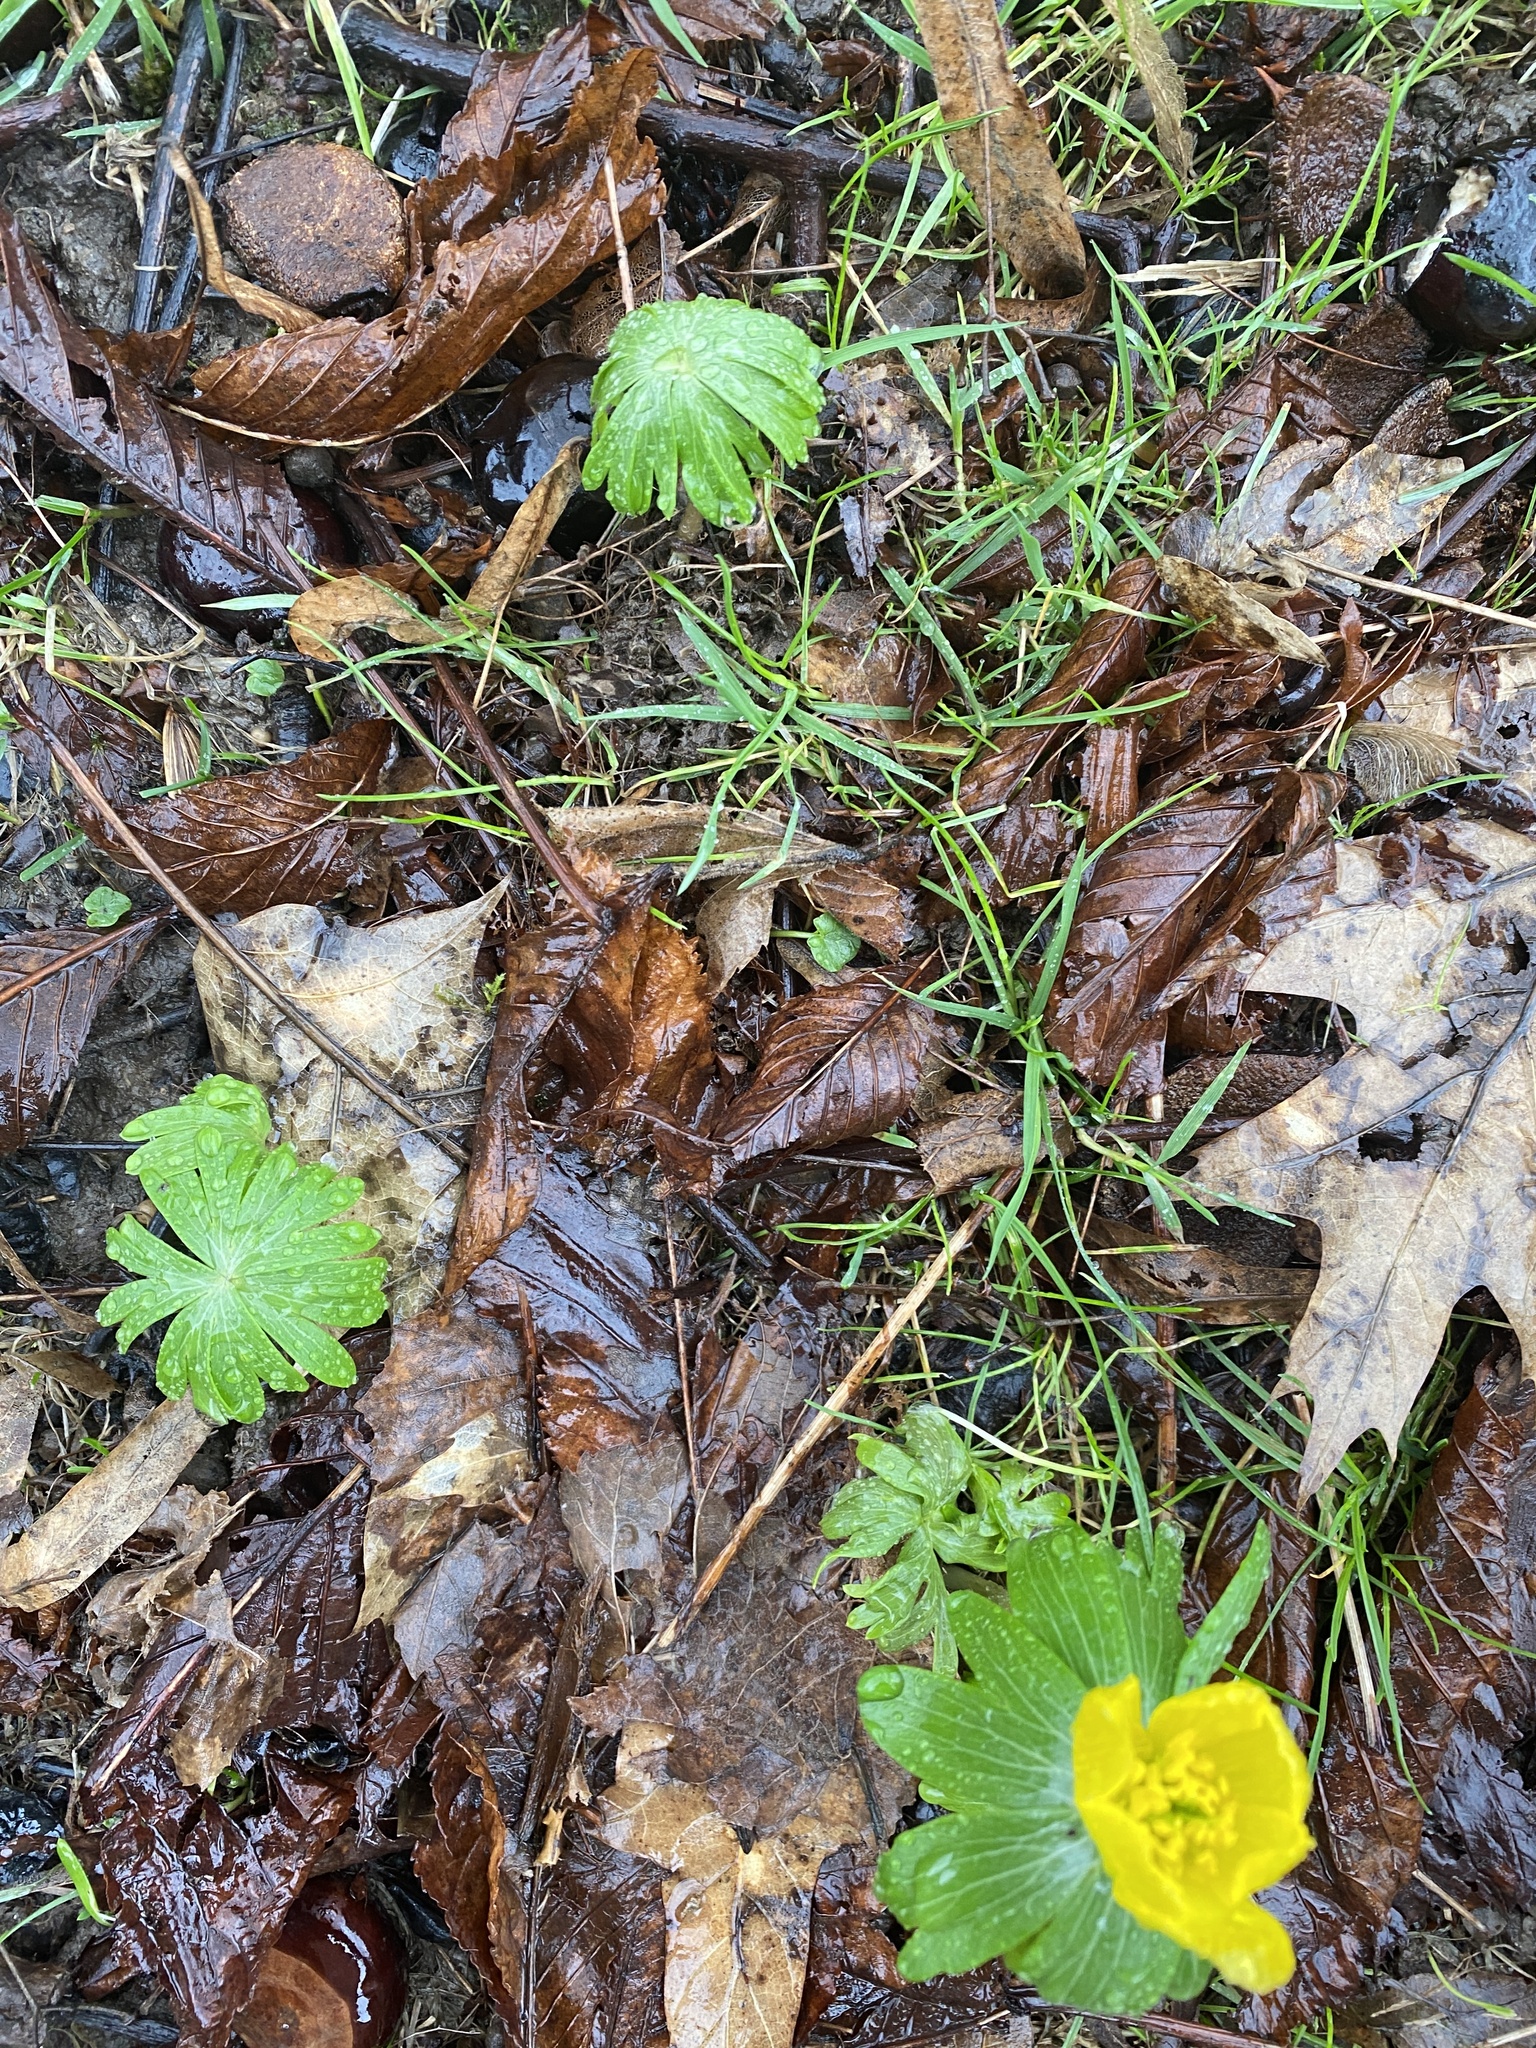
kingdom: Plantae
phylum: Tracheophyta
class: Magnoliopsida
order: Ranunculales
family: Ranunculaceae
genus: Eranthis
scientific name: Eranthis hyemalis
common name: Winter aconite
